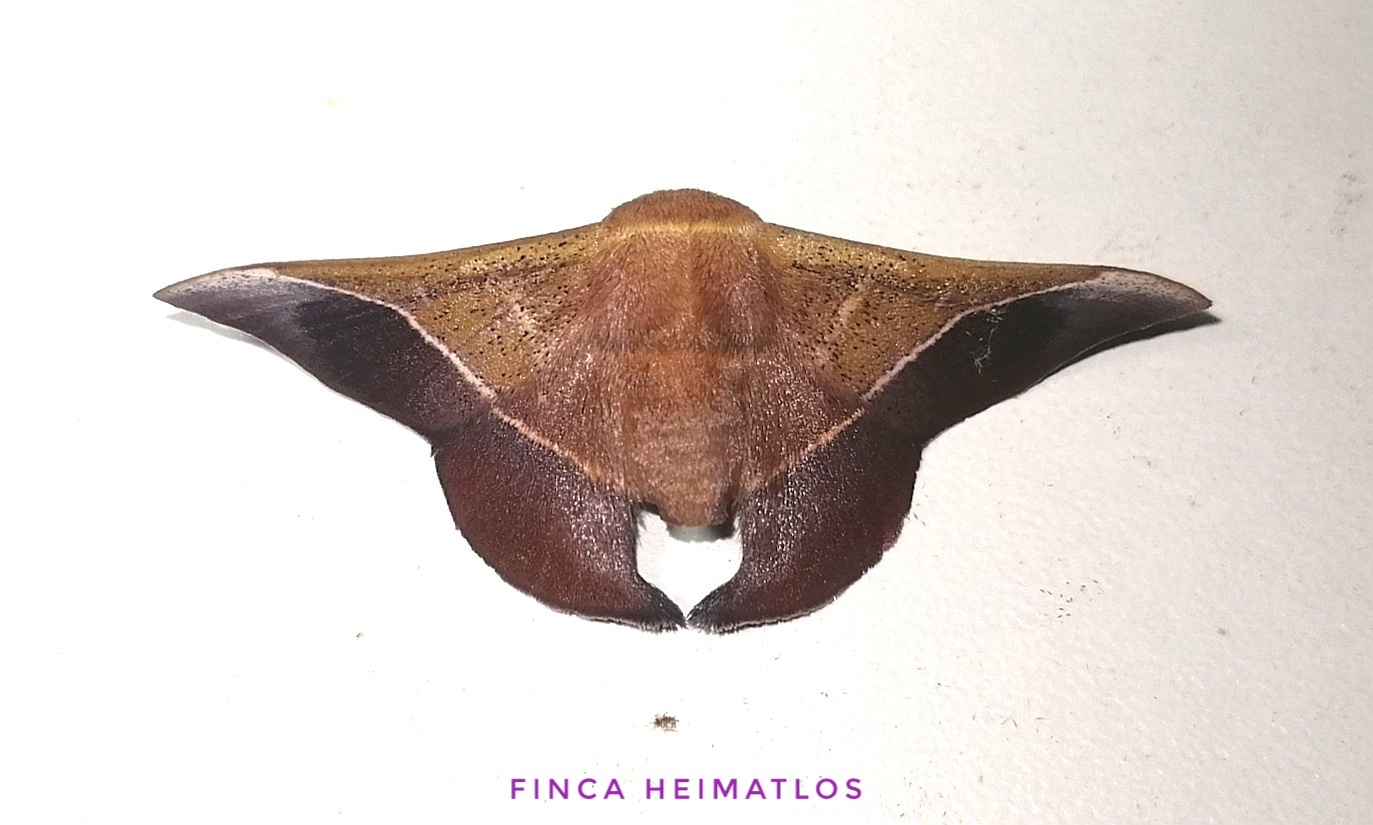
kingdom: Animalia
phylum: Arthropoda
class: Insecta
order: Lepidoptera
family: Mimallonidae
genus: Alheita
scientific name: Alheita caudina
